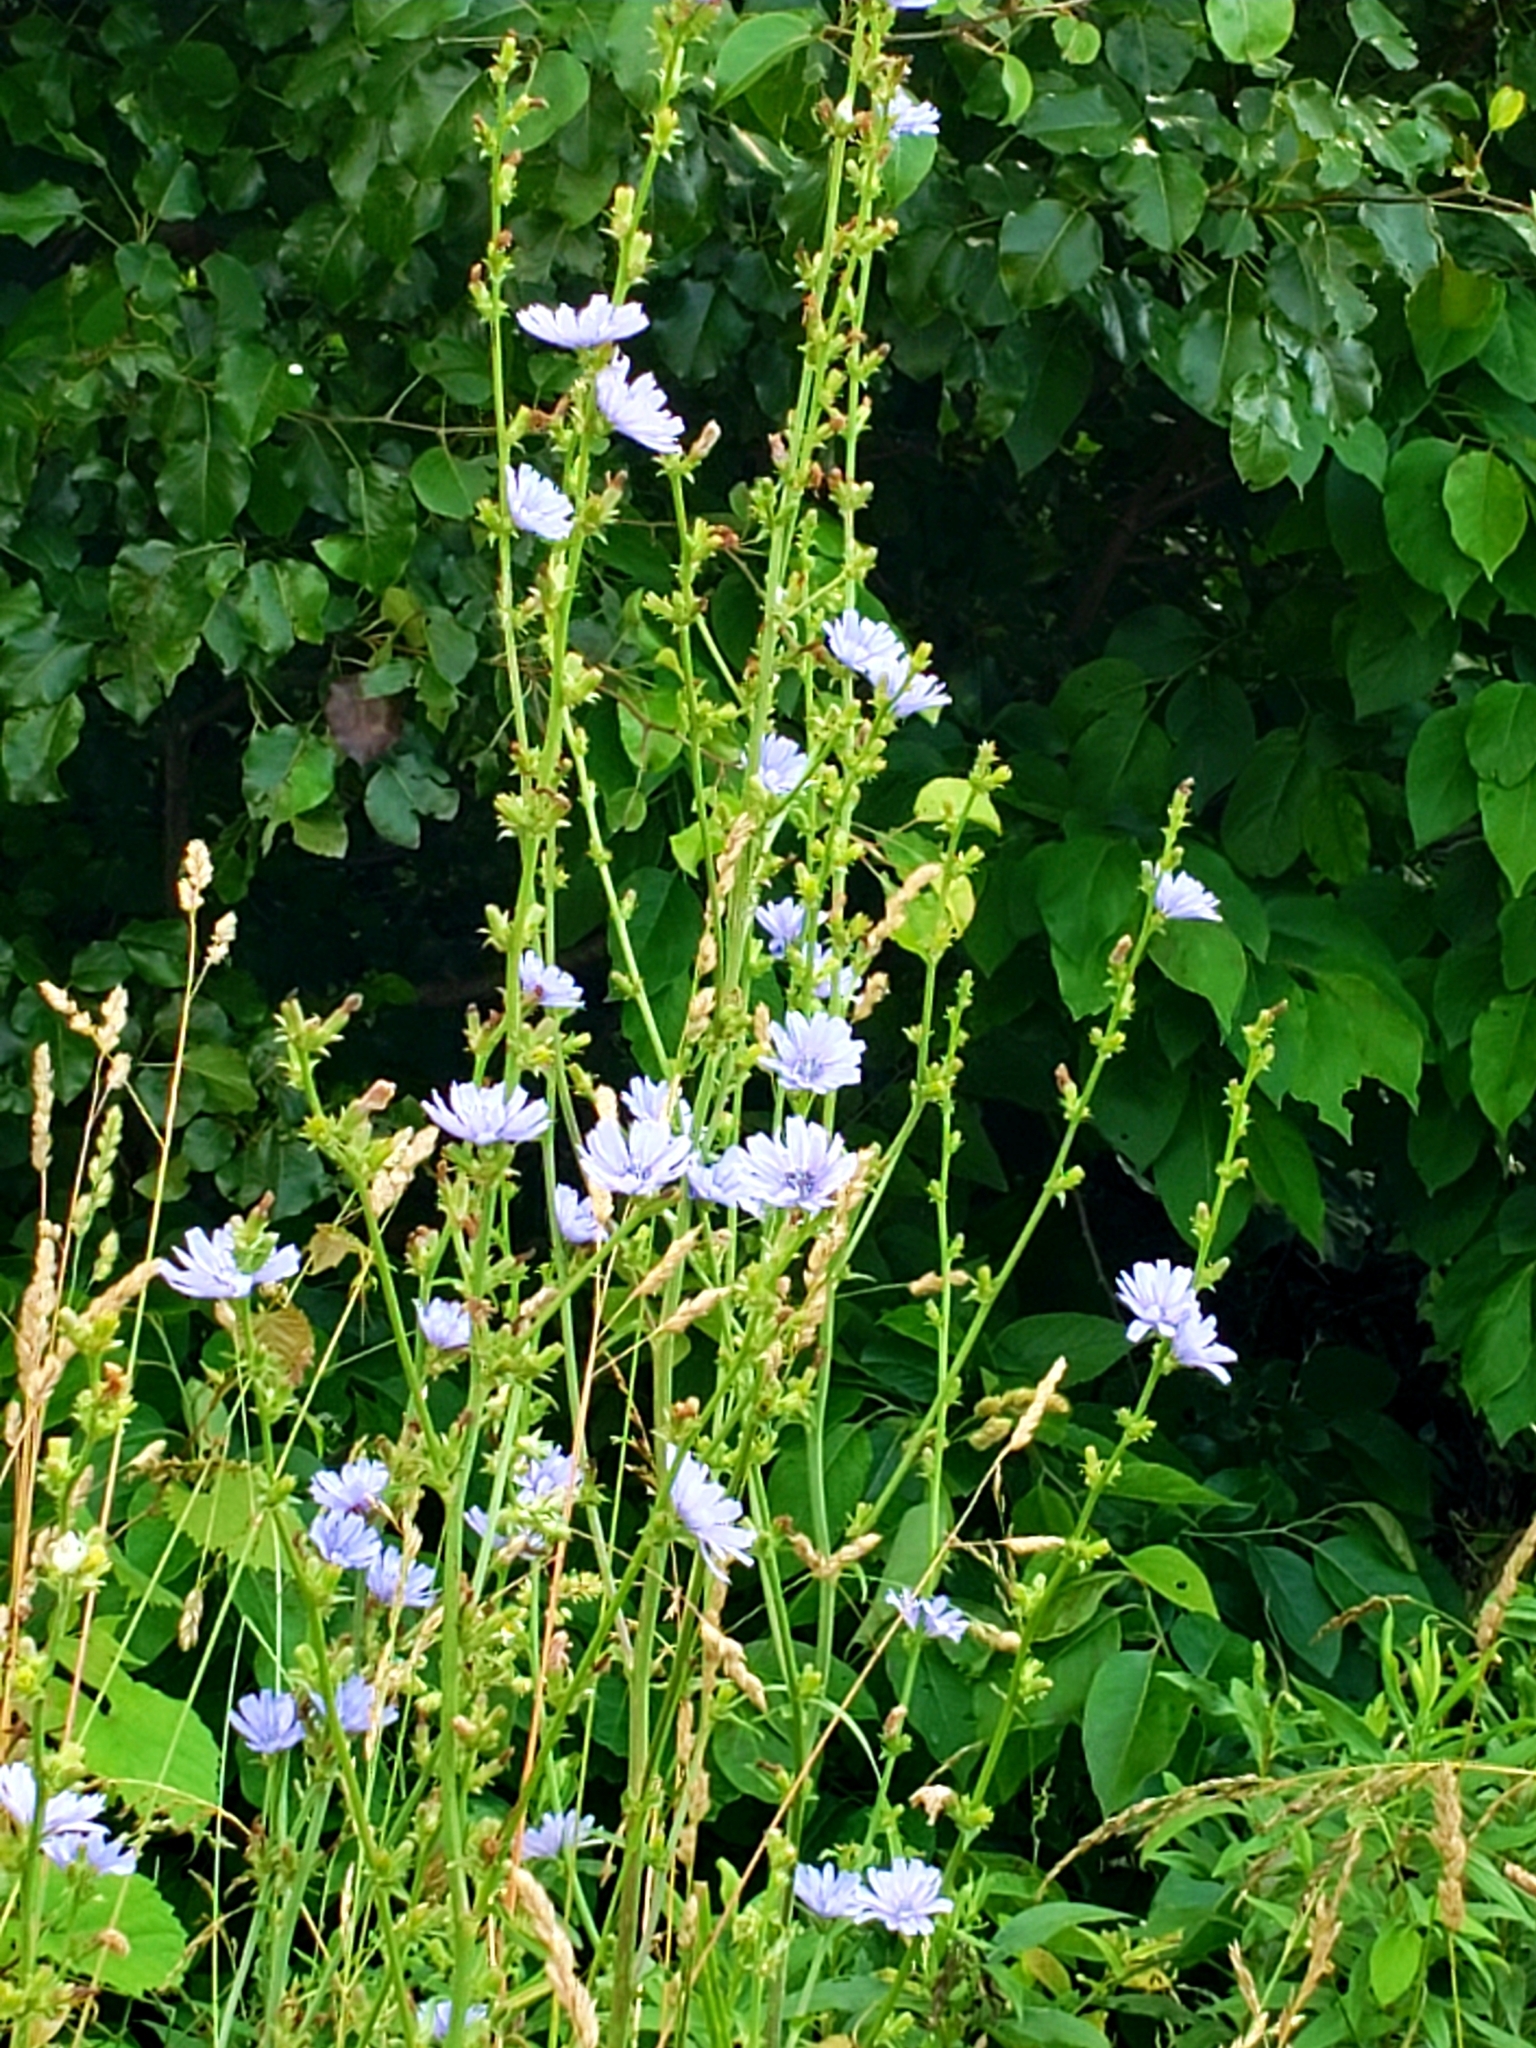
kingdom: Plantae
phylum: Tracheophyta
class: Magnoliopsida
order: Asterales
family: Asteraceae
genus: Cichorium
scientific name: Cichorium intybus
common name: Chicory
